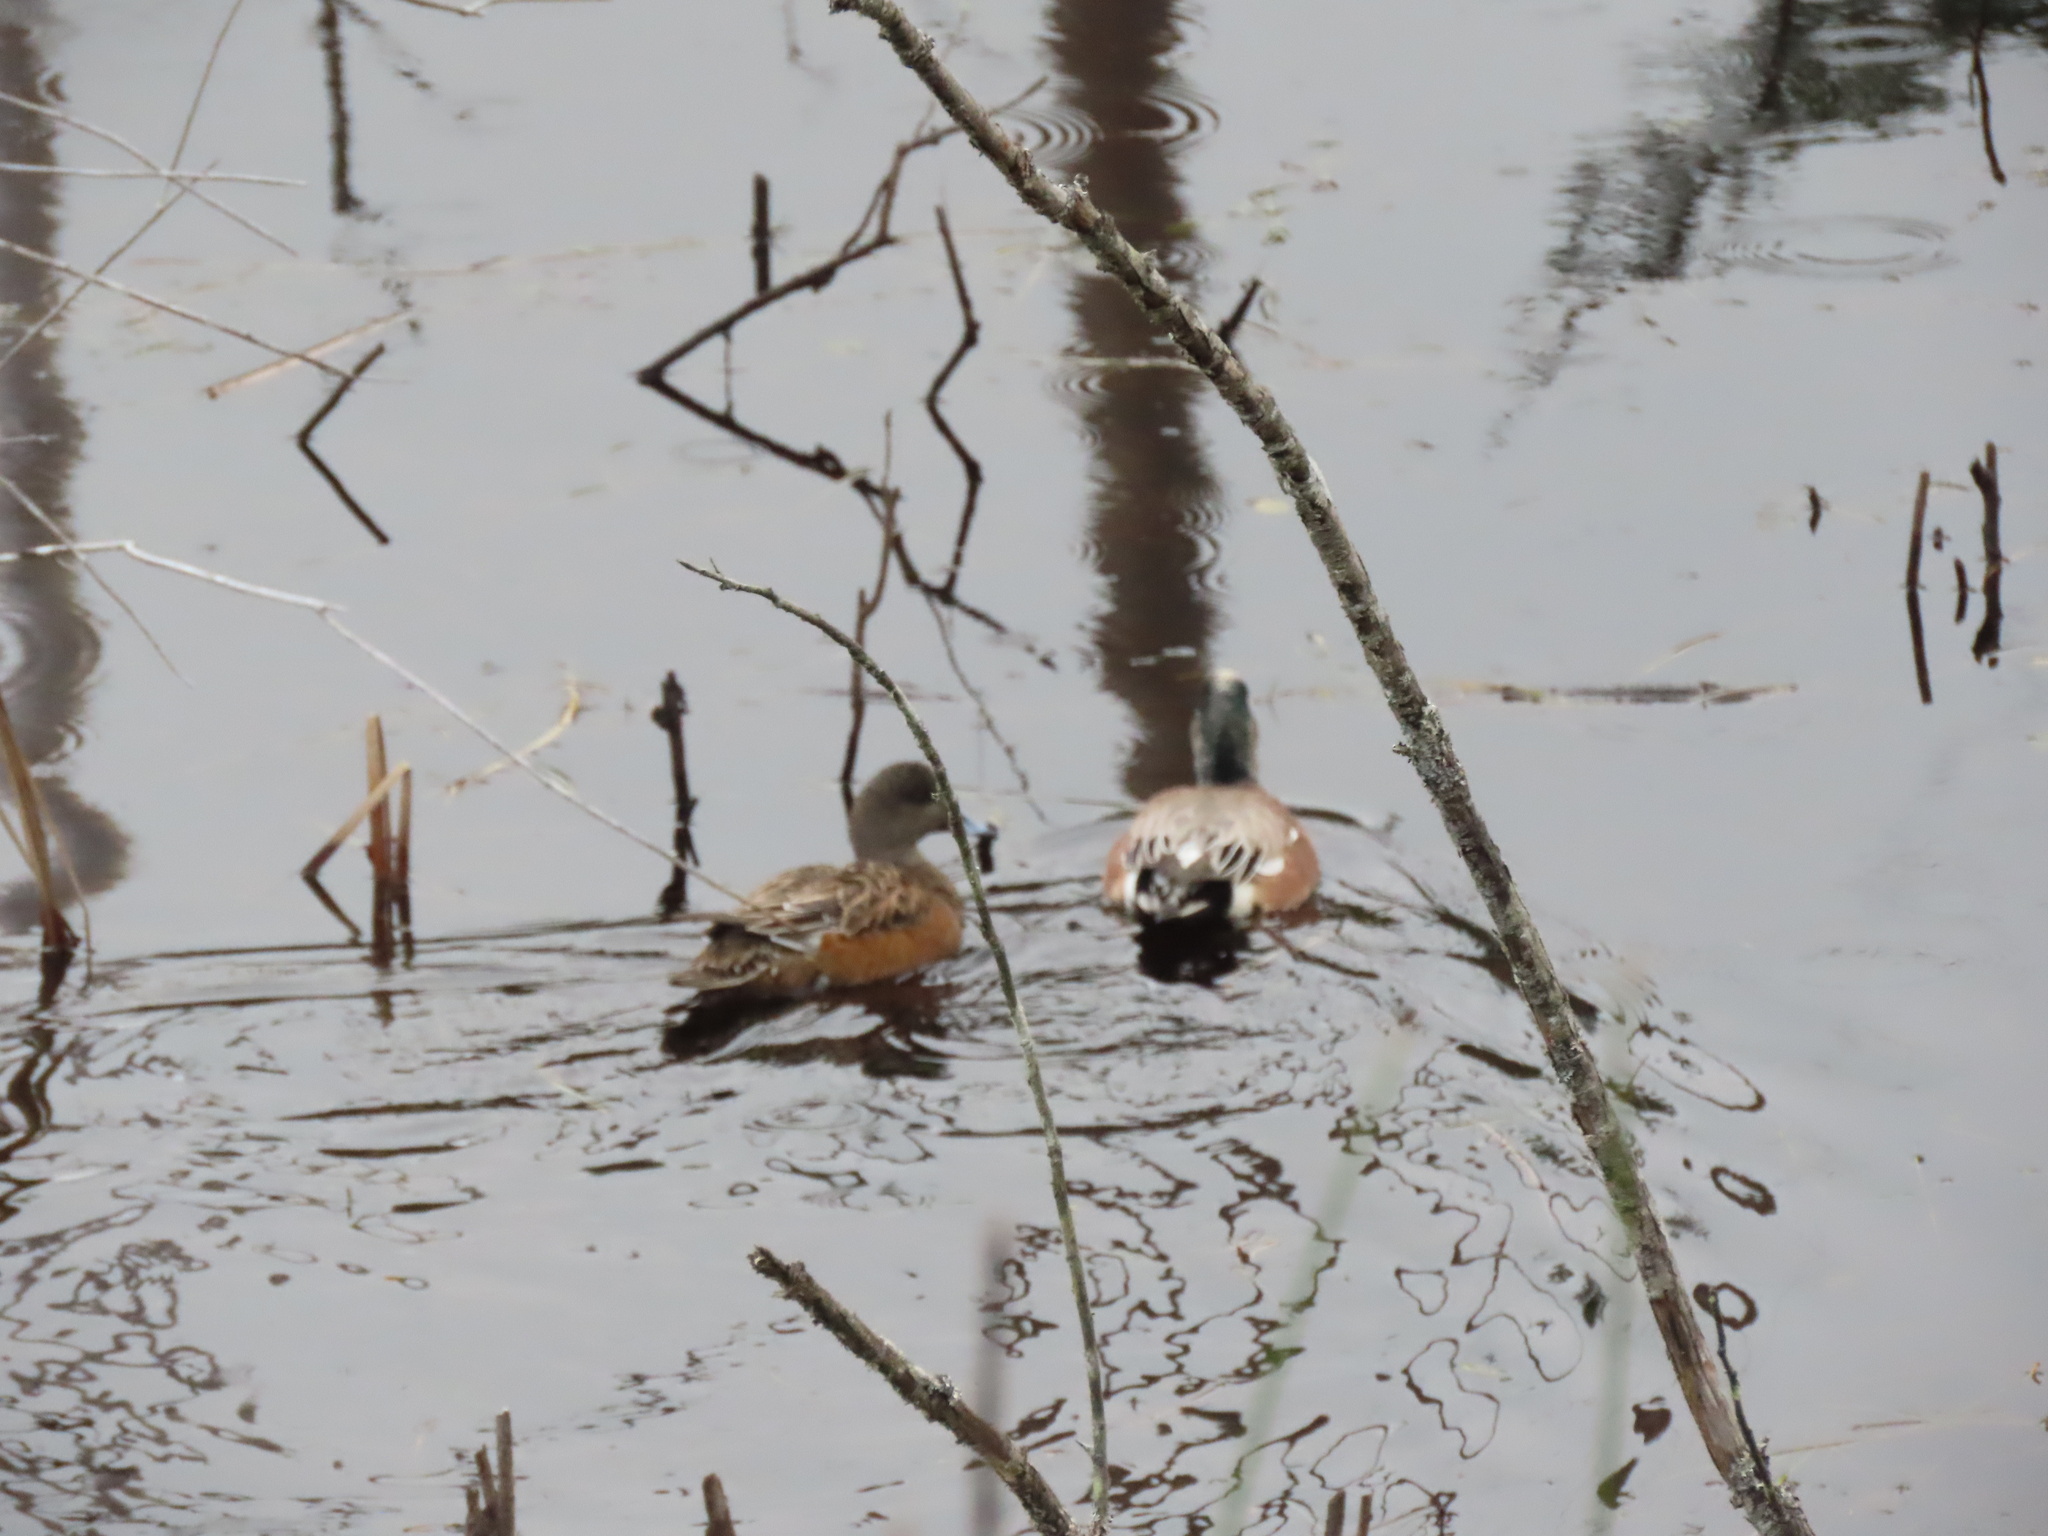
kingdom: Animalia
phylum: Chordata
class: Aves
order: Anseriformes
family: Anatidae
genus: Mareca
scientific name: Mareca americana
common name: American wigeon
